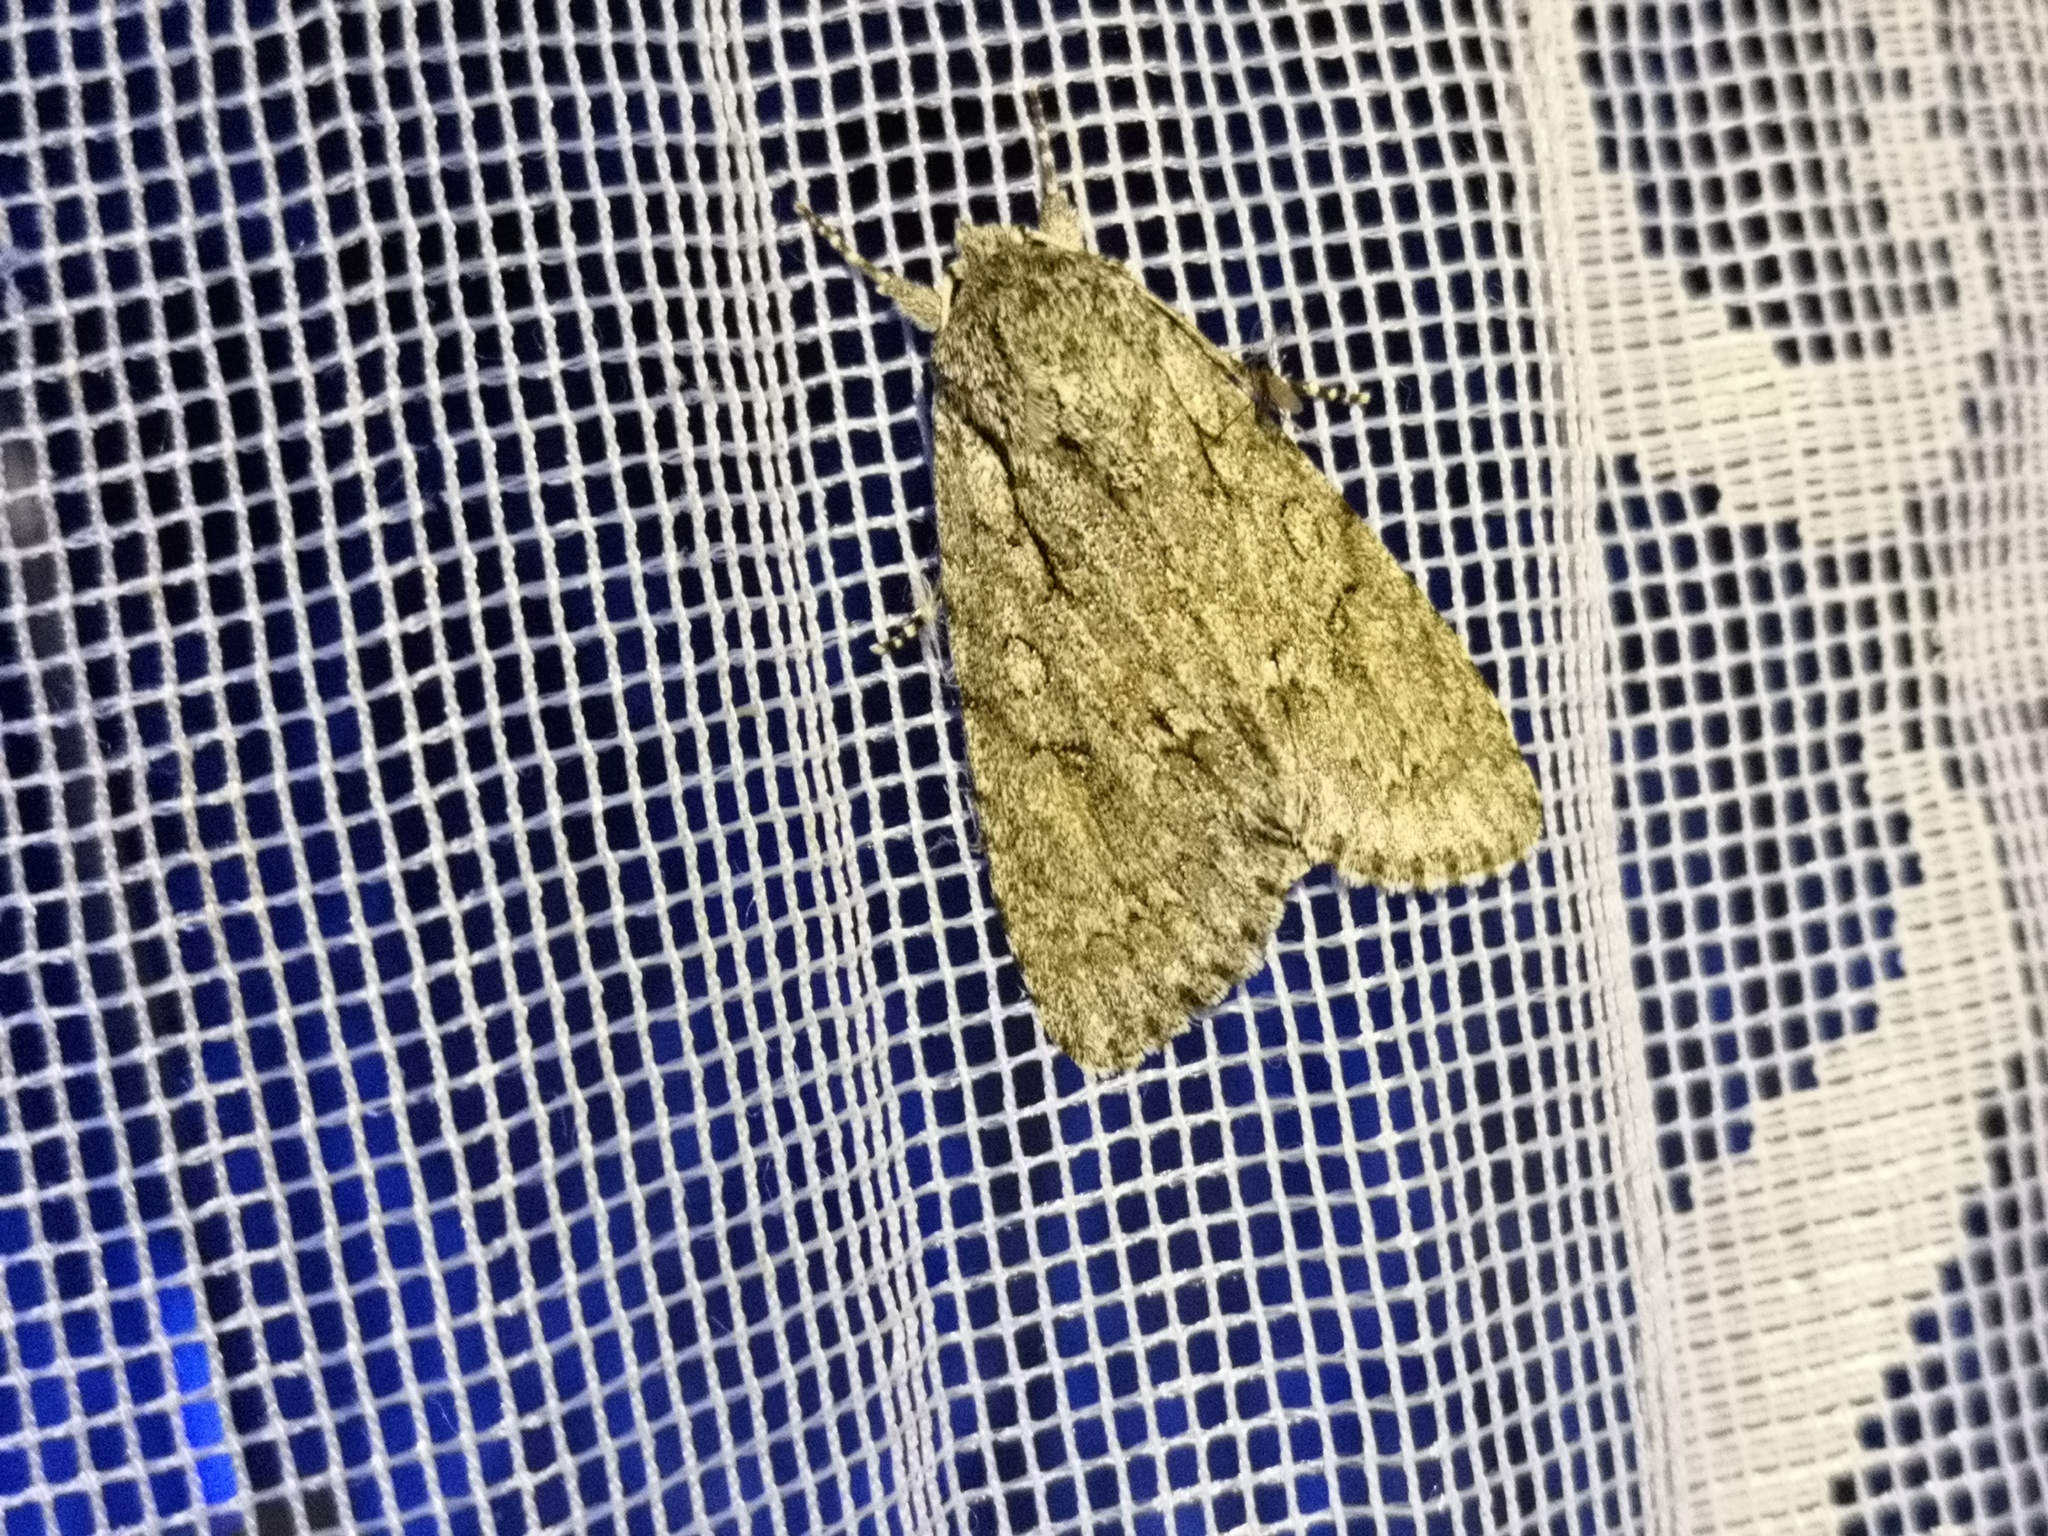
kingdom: Animalia
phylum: Arthropoda
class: Insecta
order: Lepidoptera
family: Noctuidae
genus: Acronicta
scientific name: Acronicta aceris
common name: Sycamore
